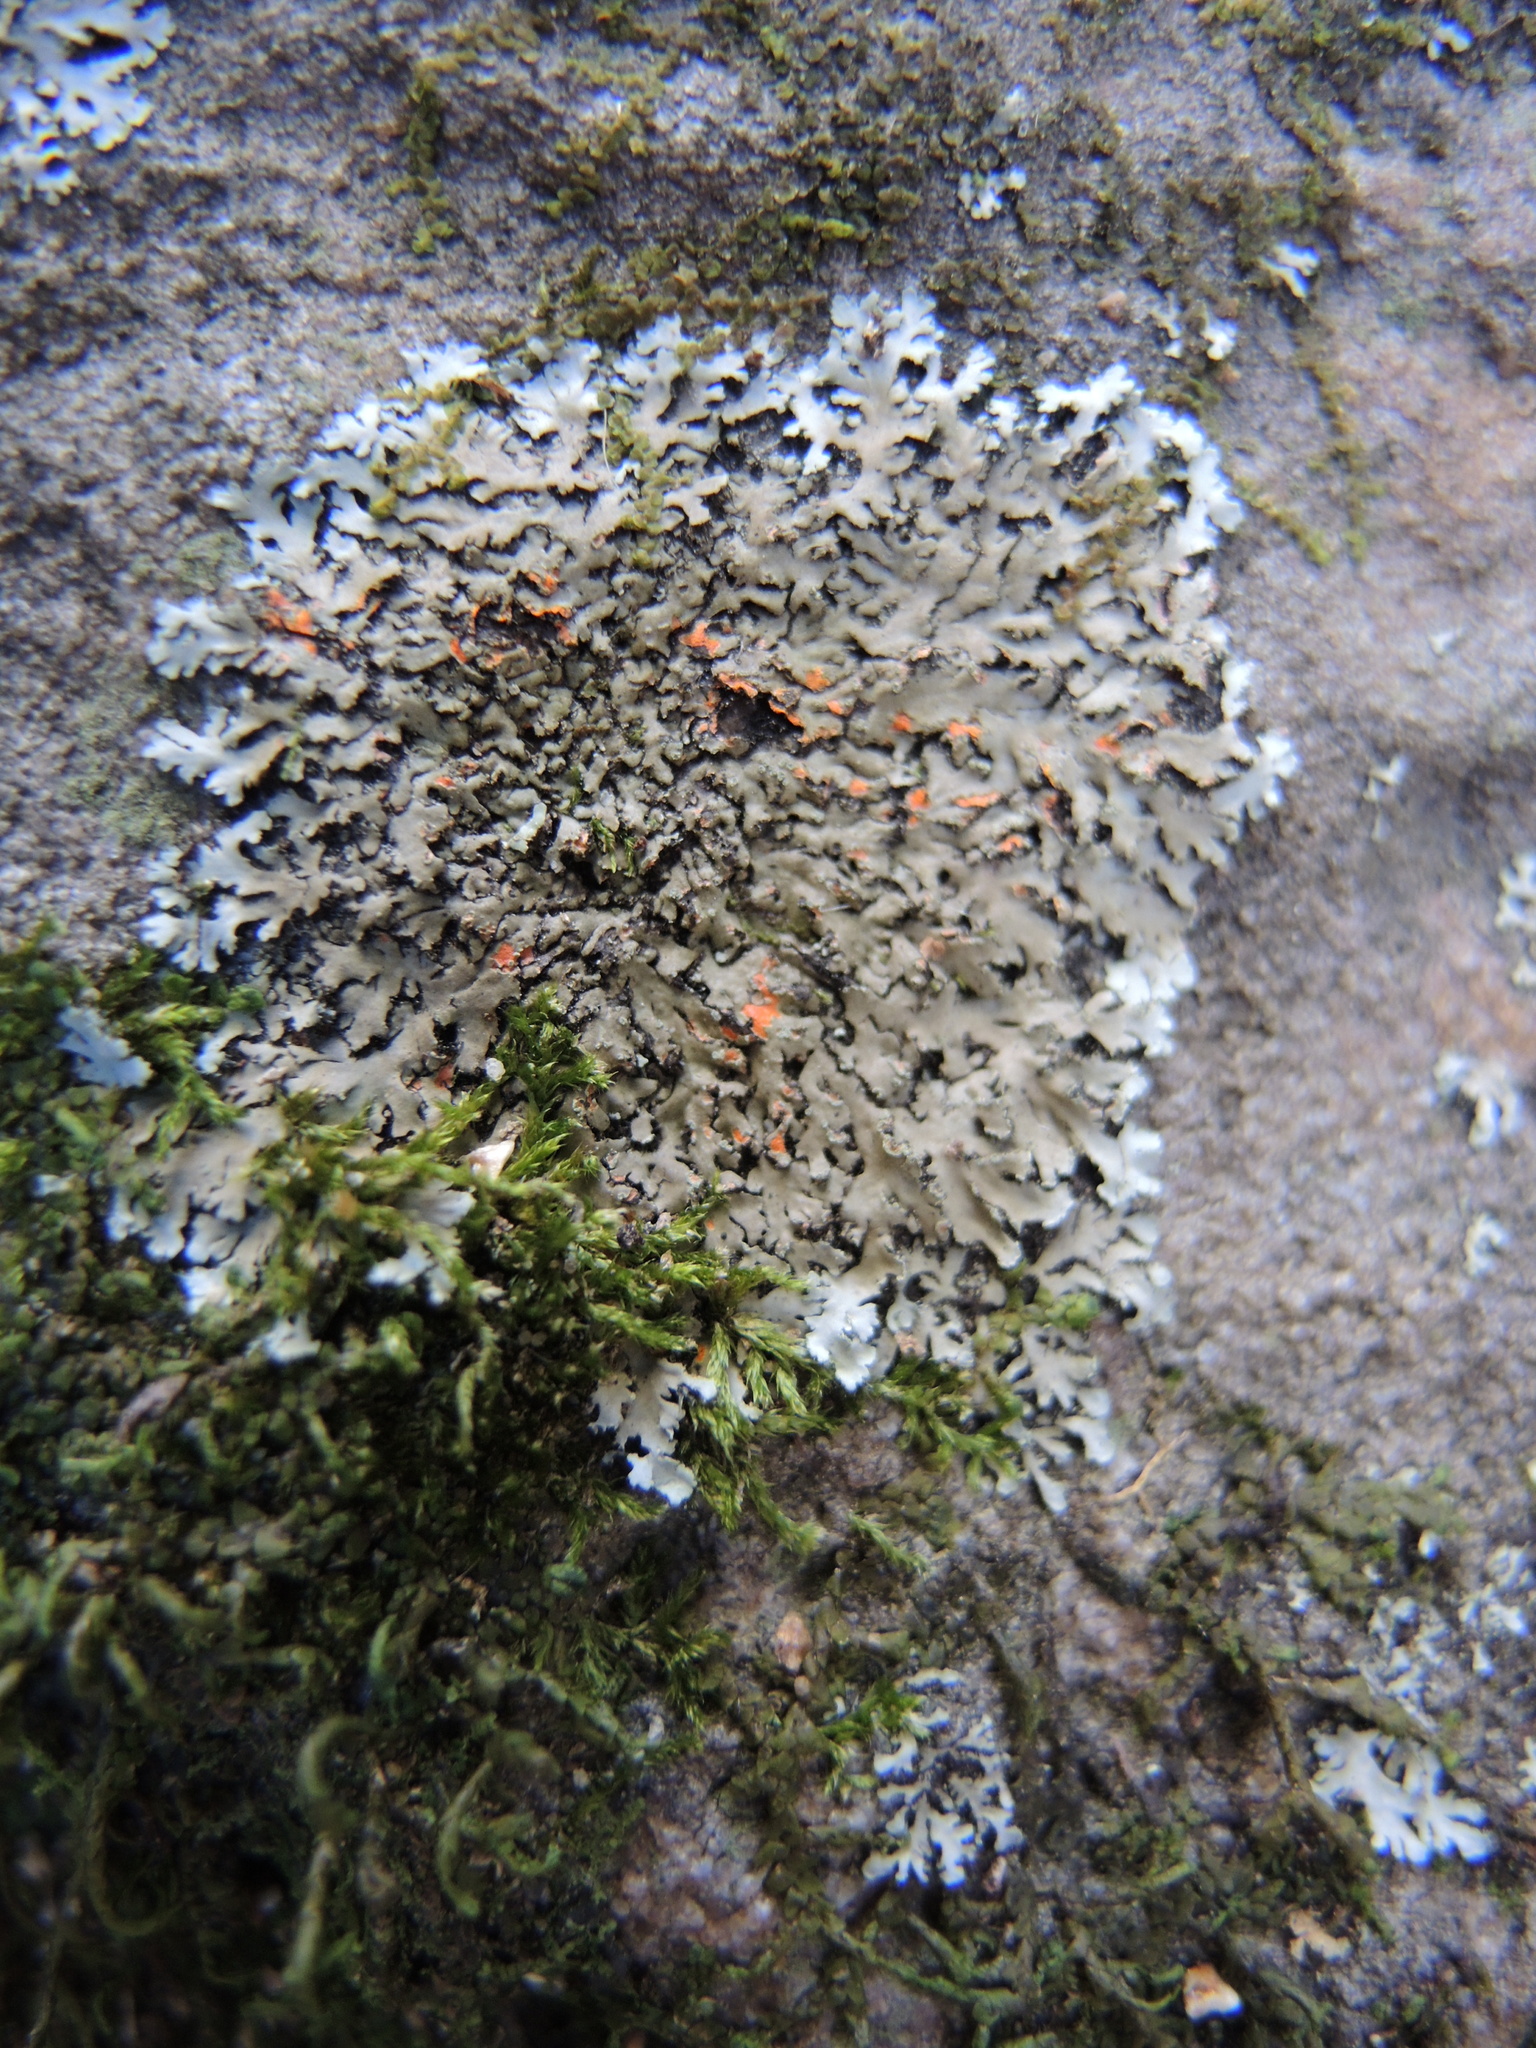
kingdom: Fungi
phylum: Ascomycota
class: Lecanoromycetes
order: Caliciales
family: Physciaceae
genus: Phaeophyscia
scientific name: Phaeophyscia rubropulchra
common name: Orange-cored shadow lichen
